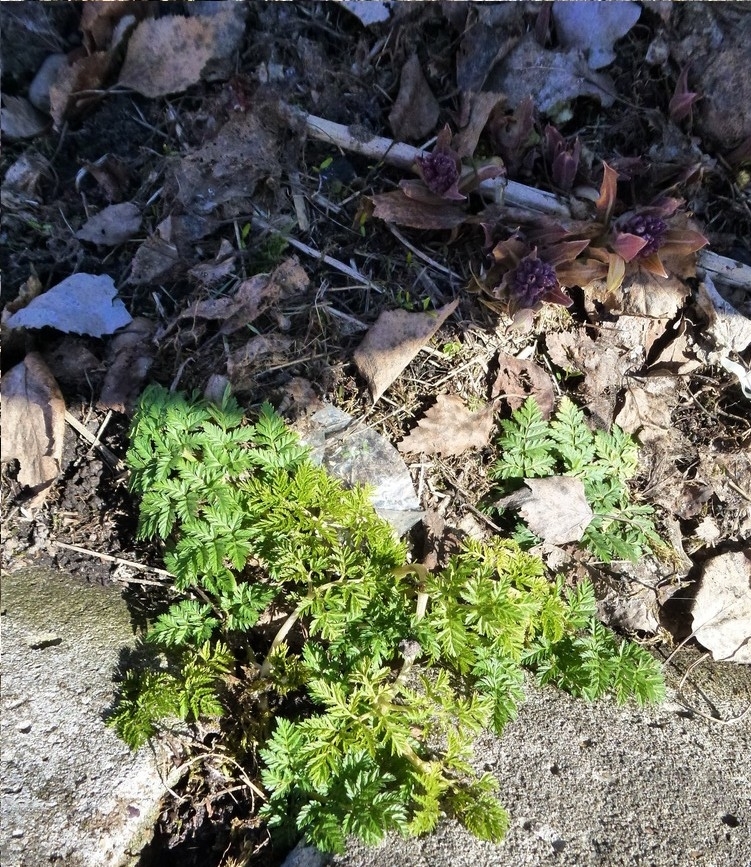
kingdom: Plantae
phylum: Tracheophyta
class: Magnoliopsida
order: Apiales
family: Apiaceae
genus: Anthriscus
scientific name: Anthriscus sylvestris
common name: Cow parsley
